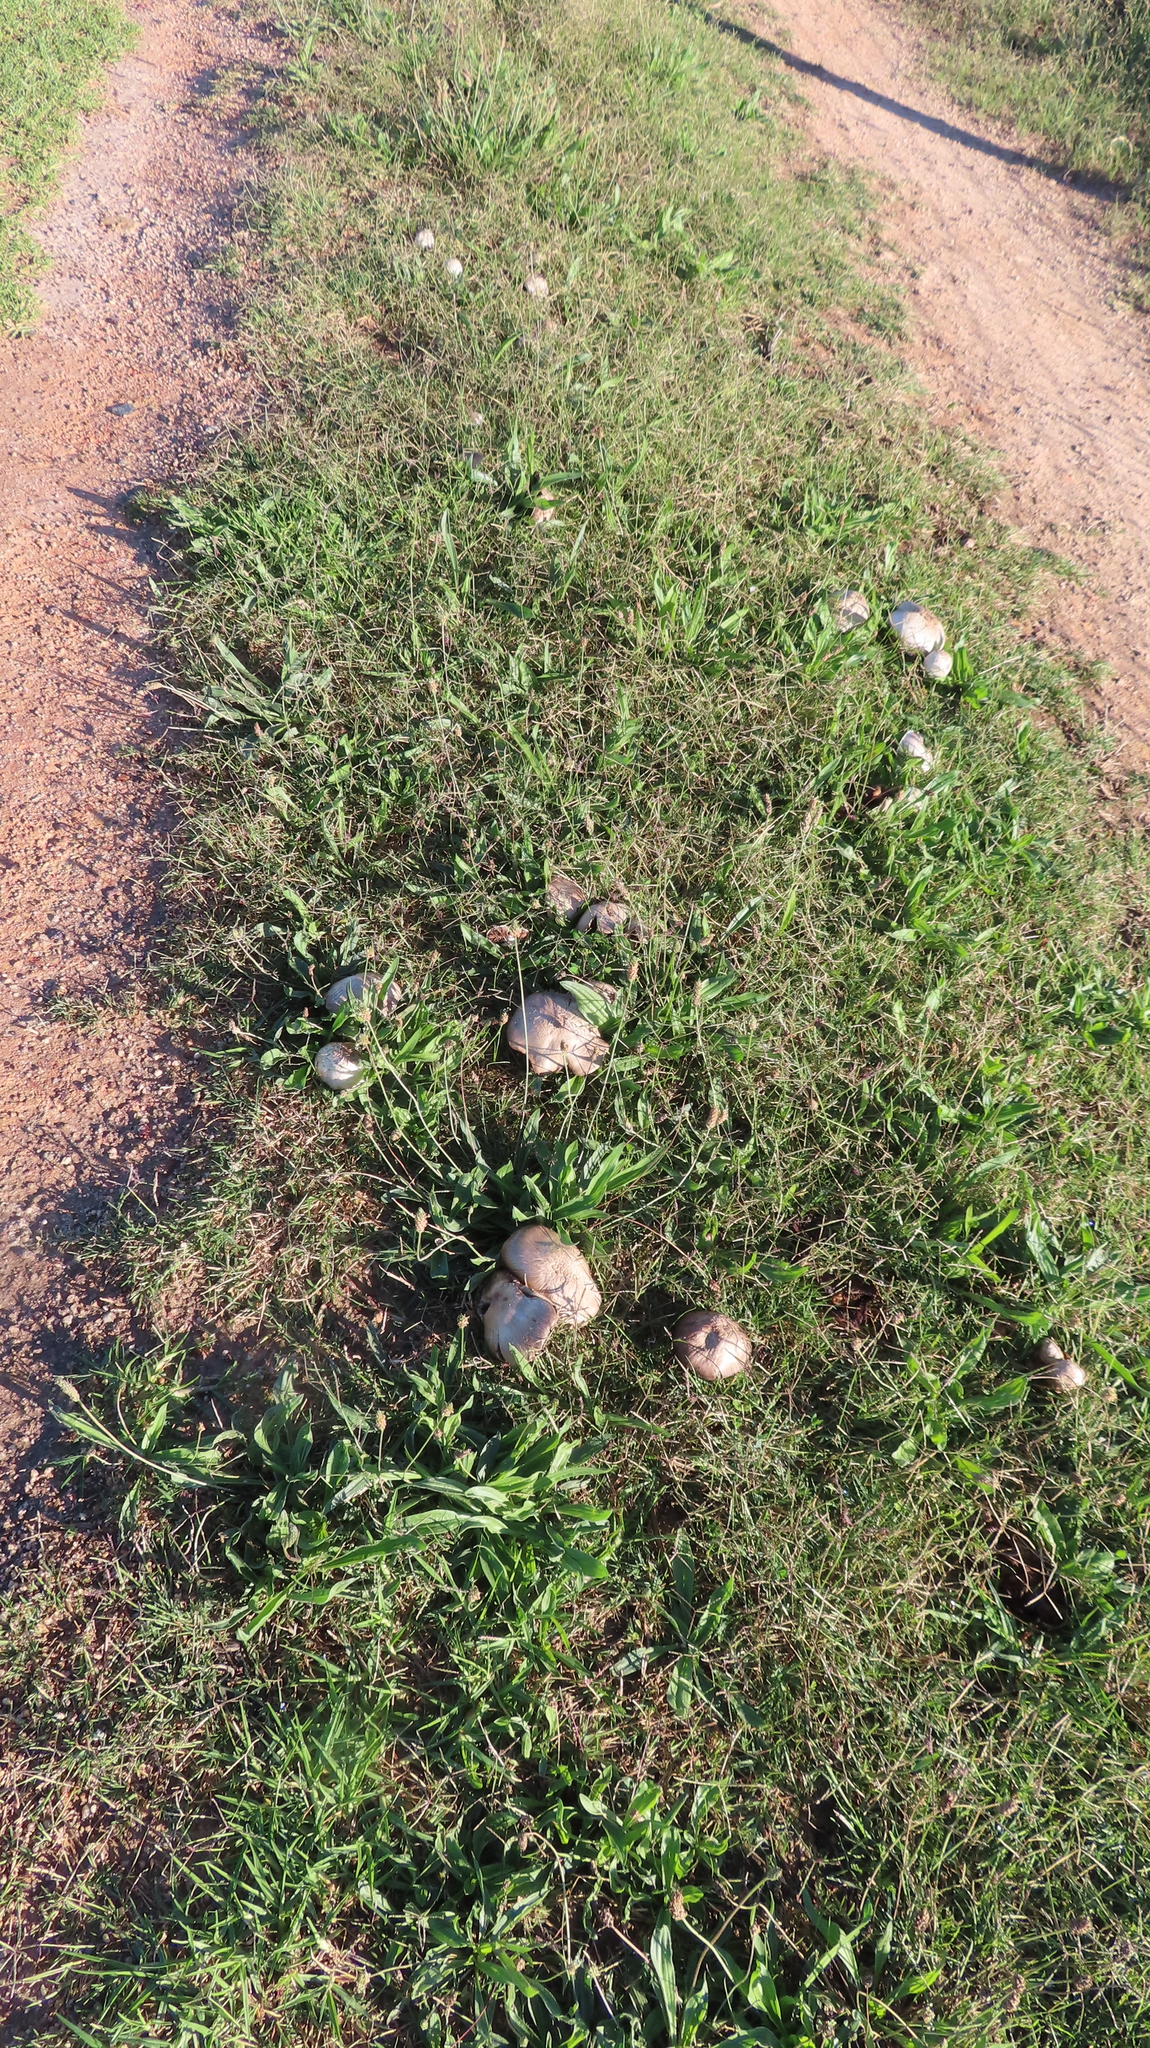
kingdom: Fungi
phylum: Basidiomycota
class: Agaricomycetes
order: Agaricales
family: Agaricaceae
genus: Agaricus
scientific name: Agaricus campestris
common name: Field mushroom
